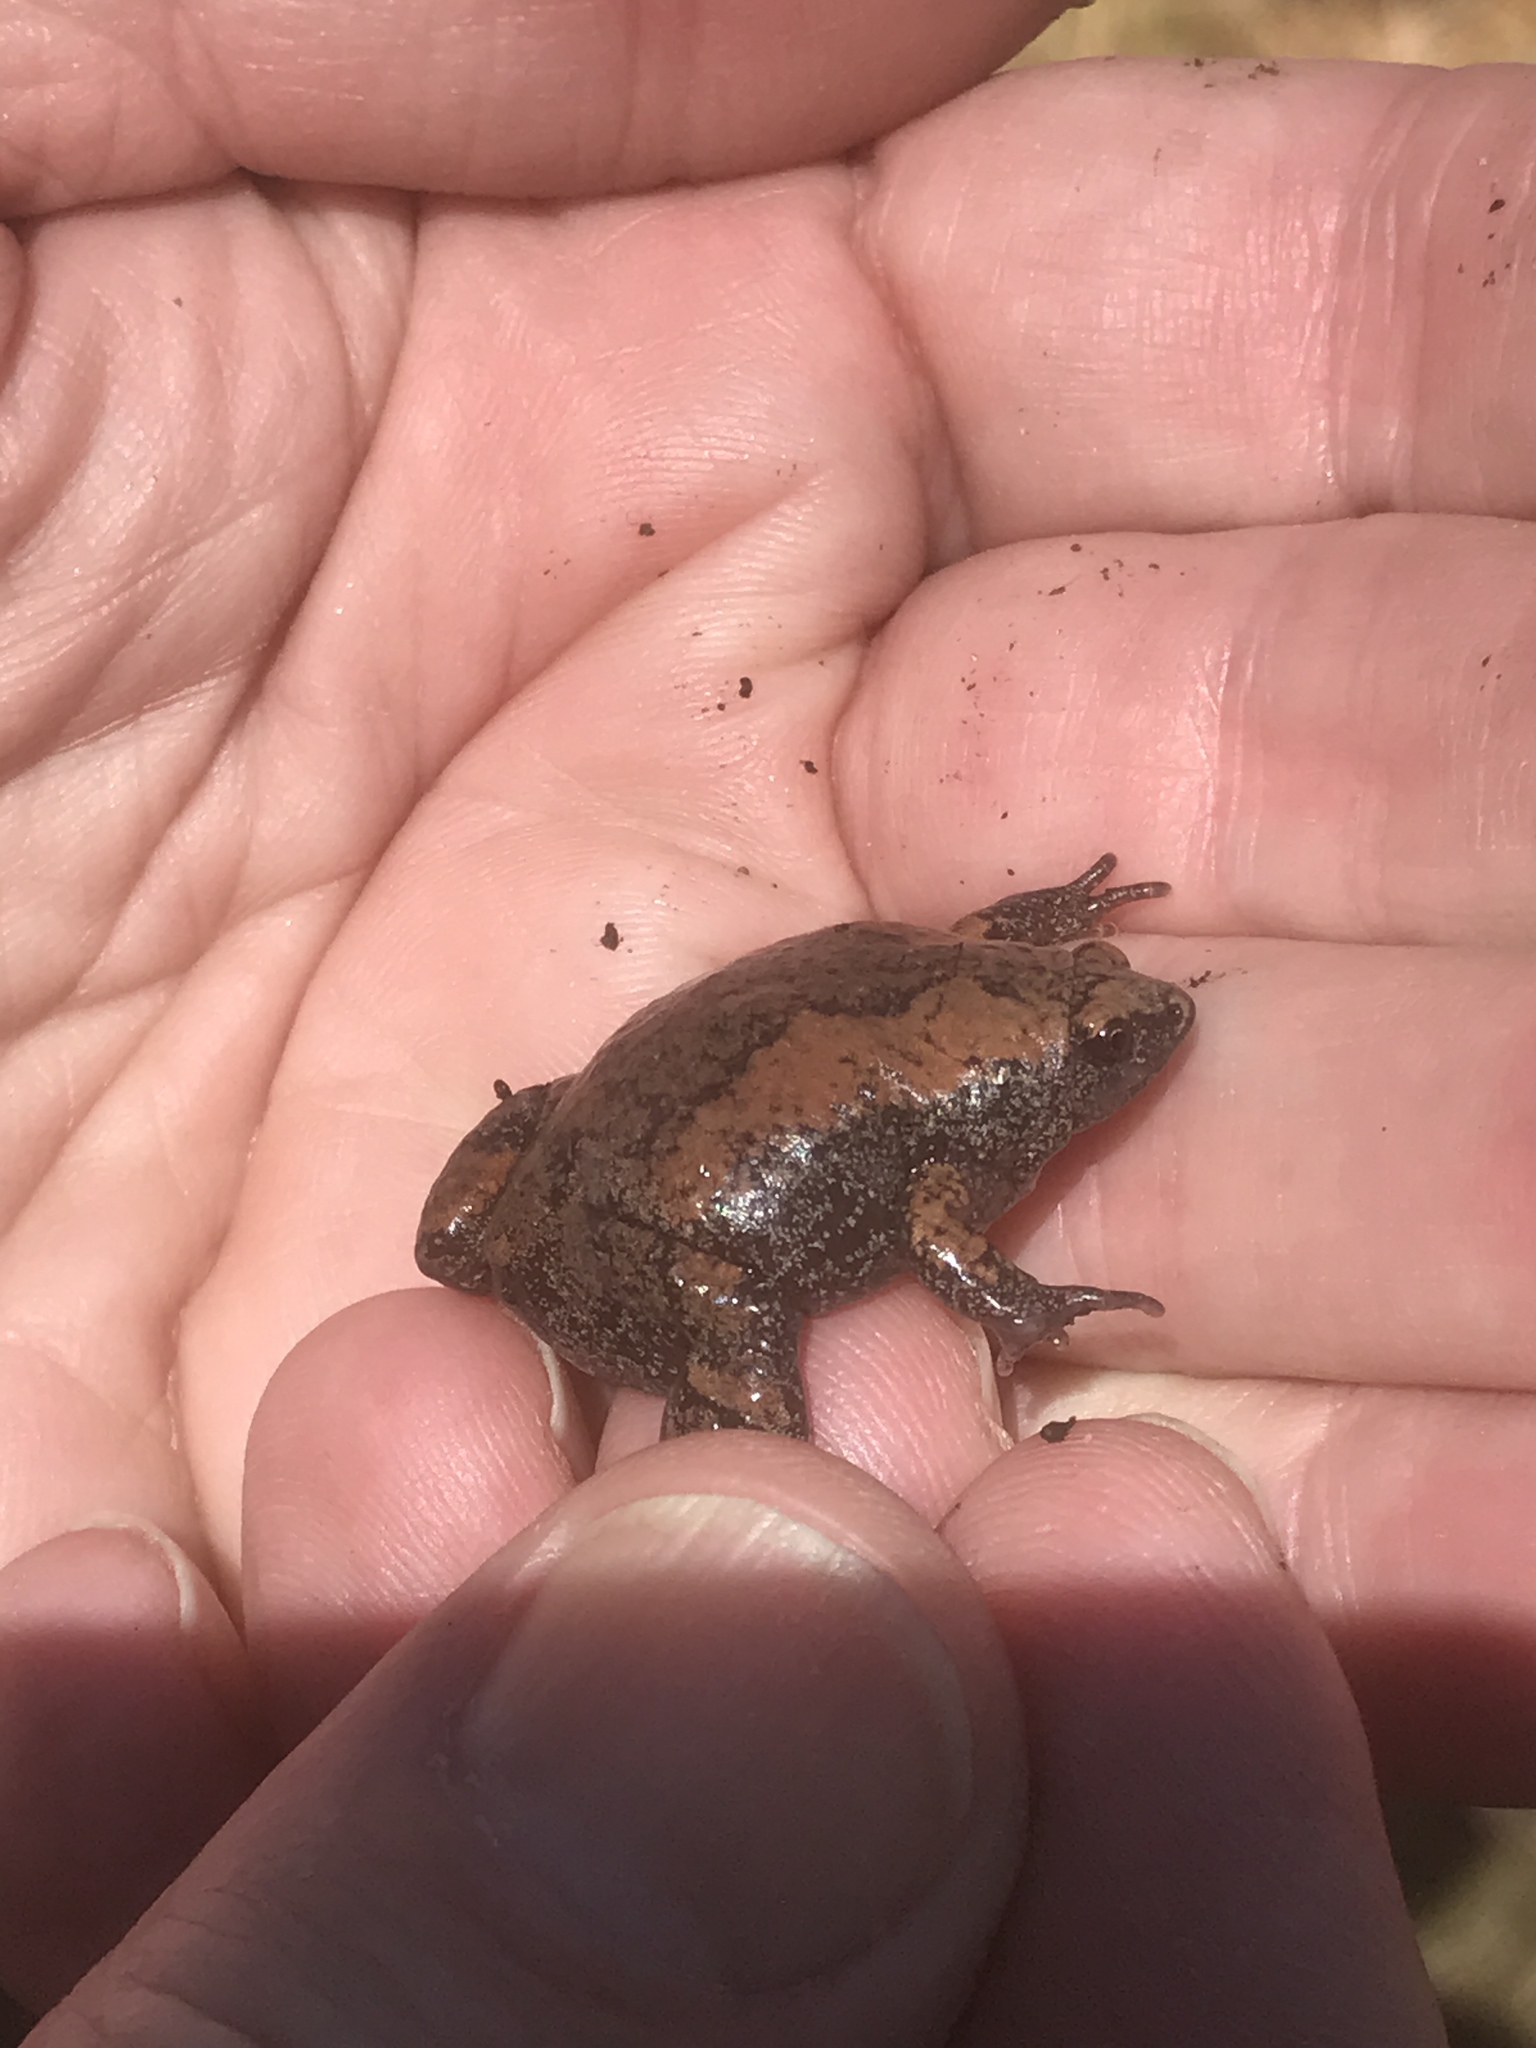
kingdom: Animalia
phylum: Chordata
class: Amphibia
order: Anura
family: Microhylidae
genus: Gastrophryne
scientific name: Gastrophryne carolinensis
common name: Eastern narrowmouth toad
